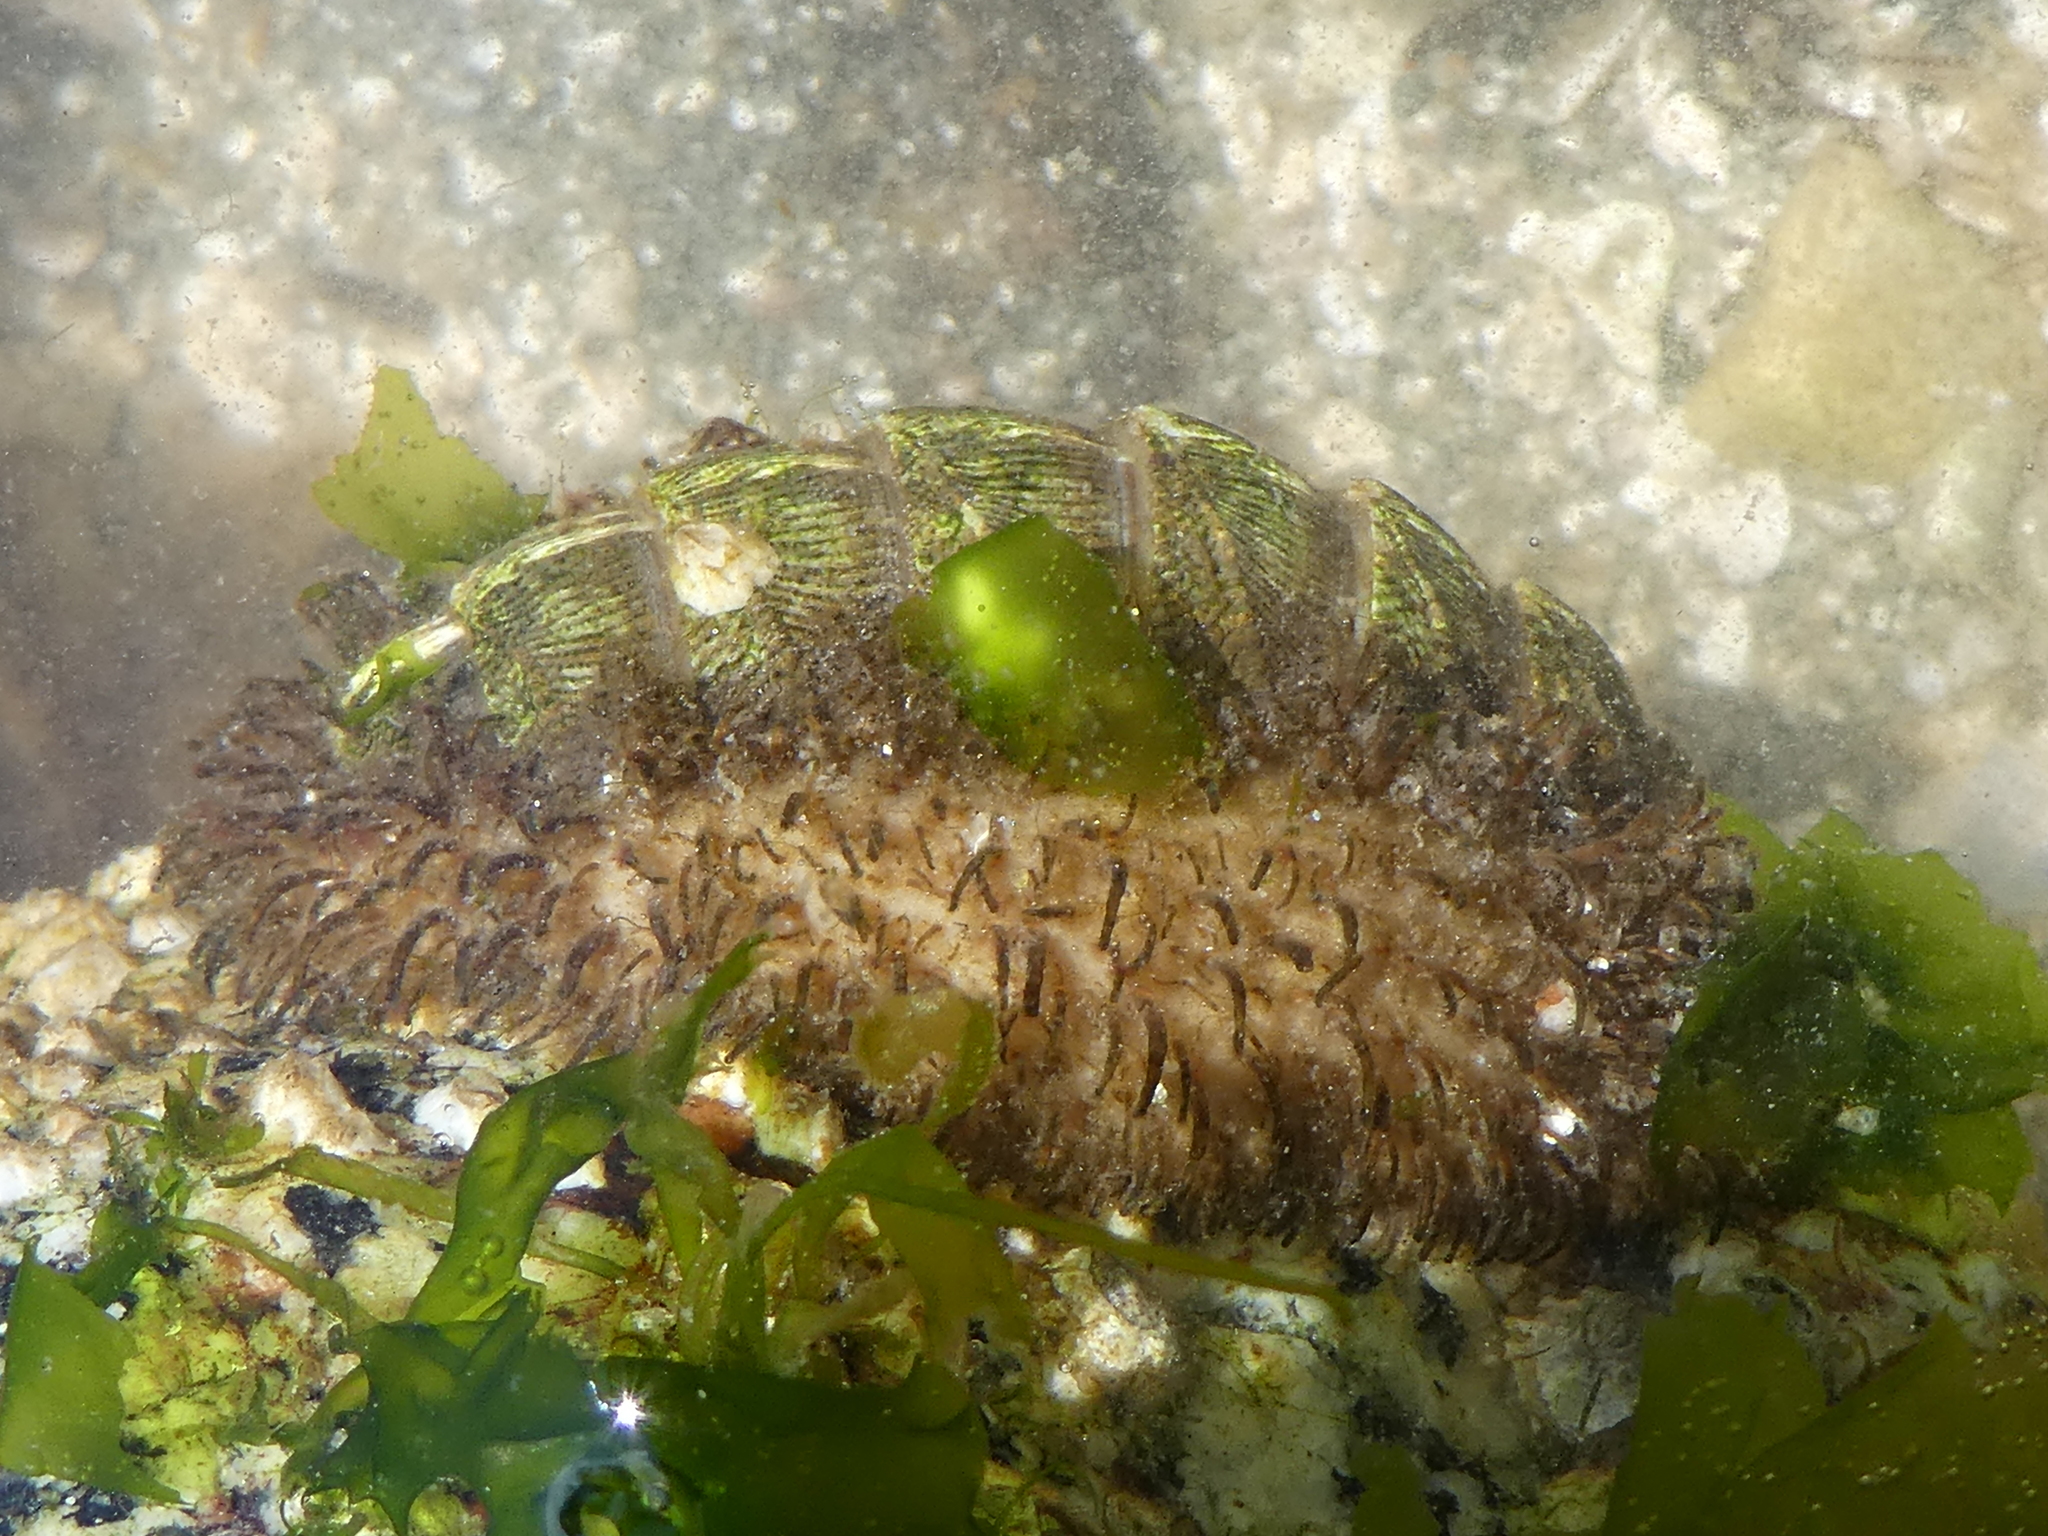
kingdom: Animalia
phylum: Mollusca
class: Polyplacophora
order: Chitonida
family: Mopaliidae
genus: Mopalia
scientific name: Mopalia muscosa
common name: Mossy chiton
